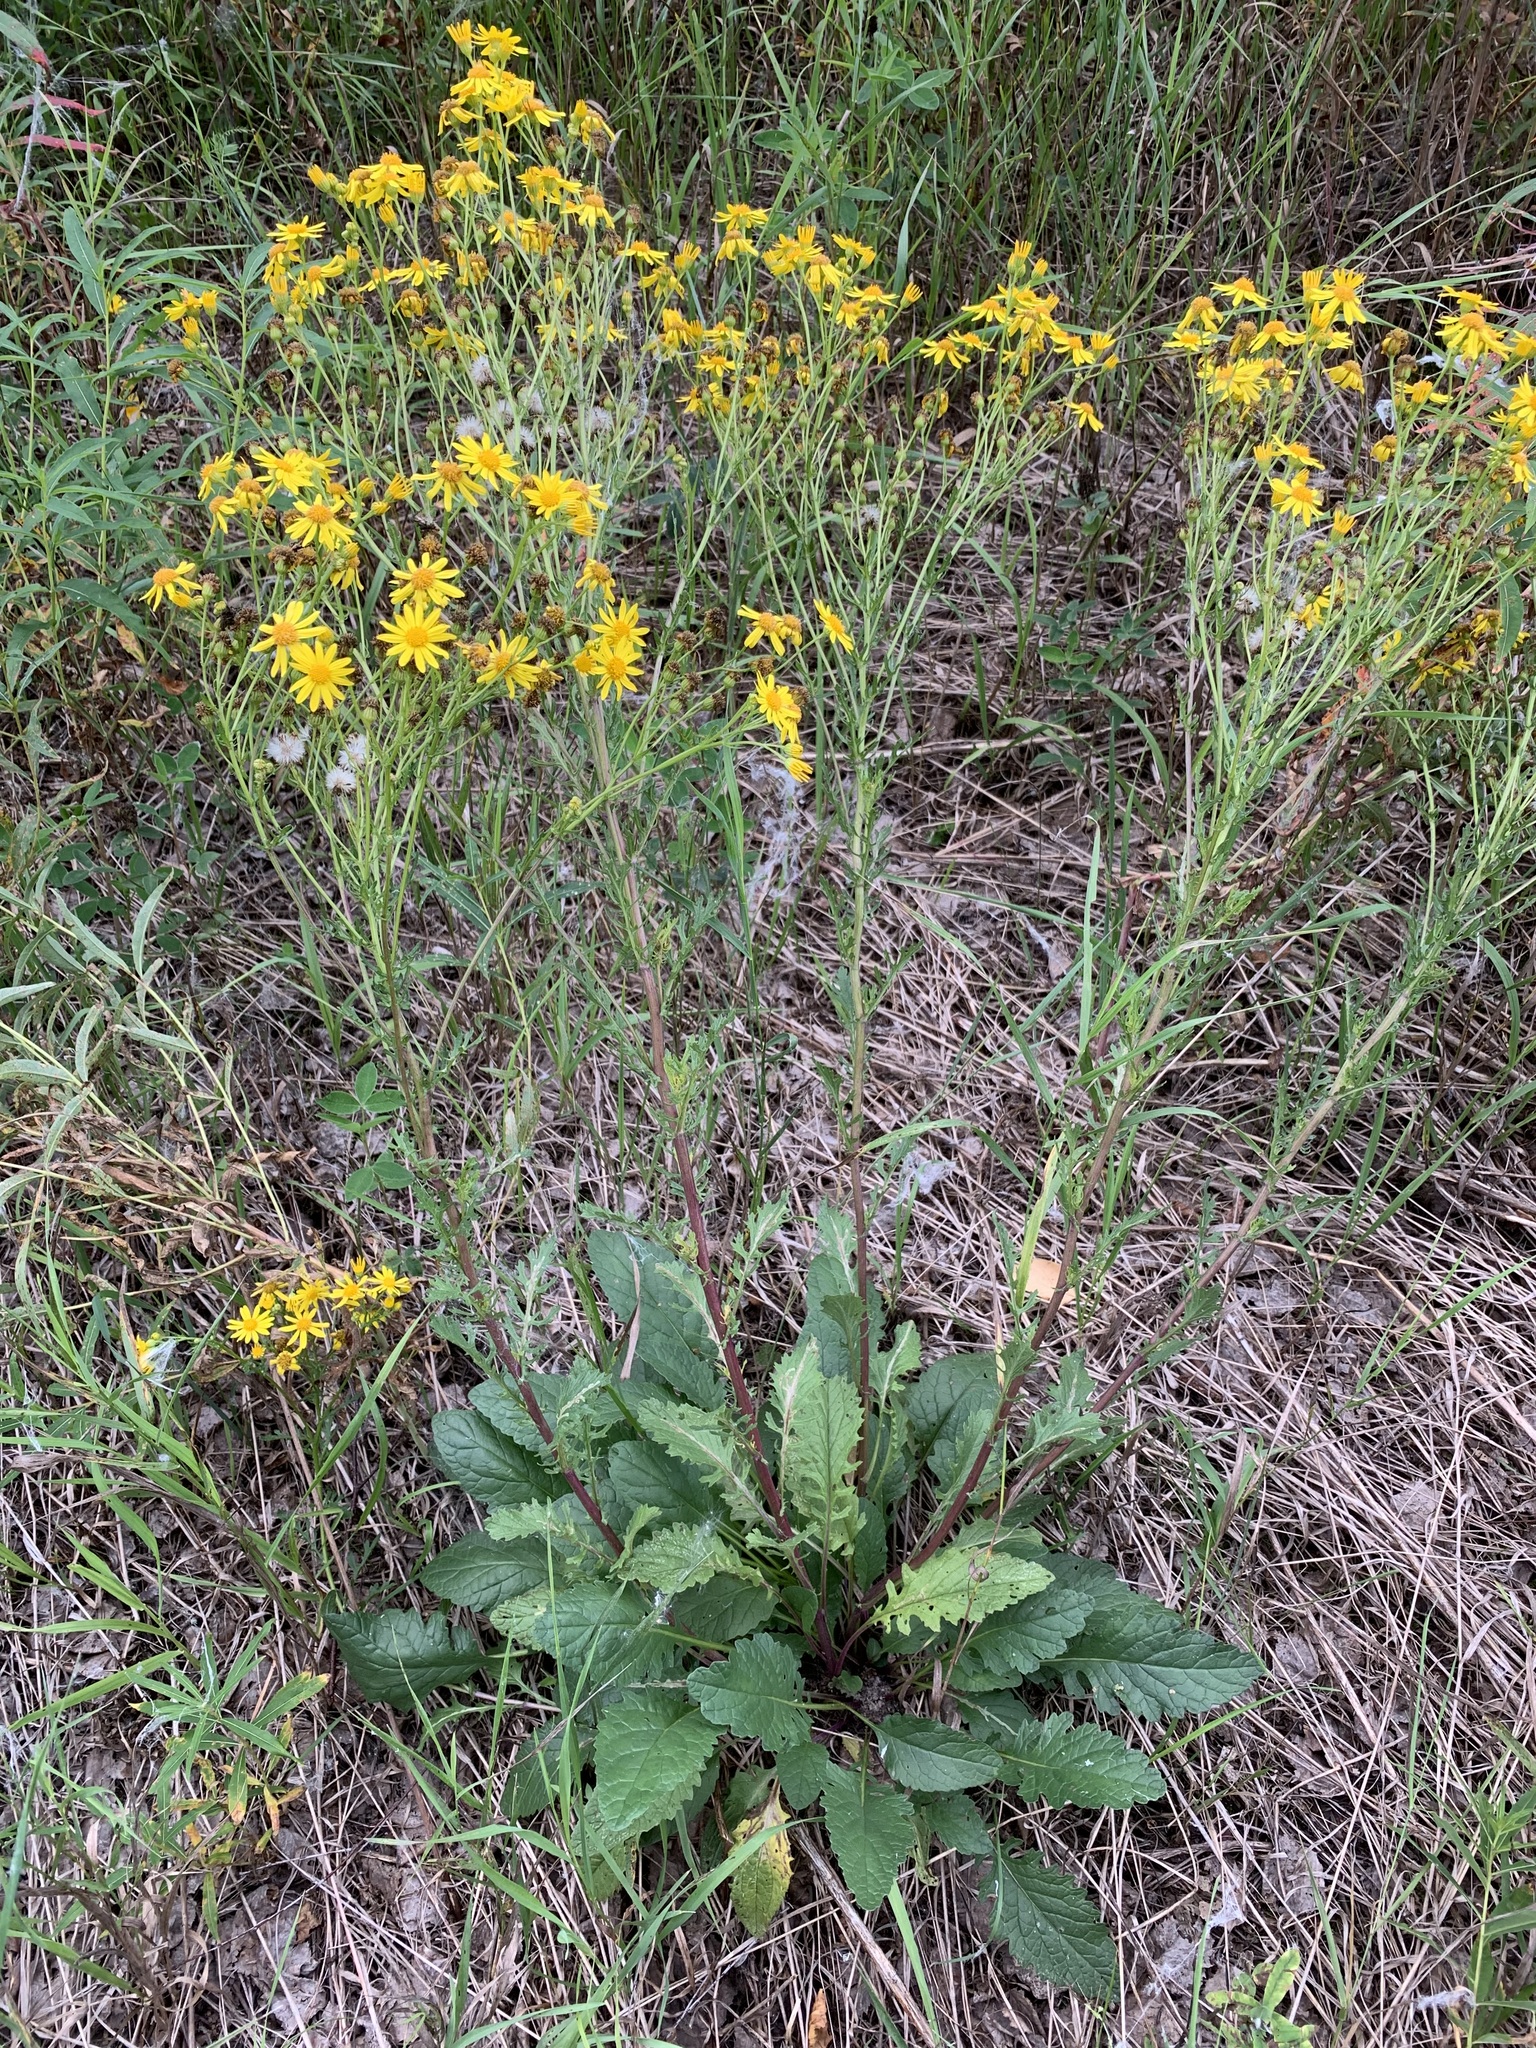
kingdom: Plantae
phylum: Tracheophyta
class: Magnoliopsida
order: Asterales
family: Asteraceae
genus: Jacobaea
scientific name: Jacobaea vulgaris
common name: Stinking willie
